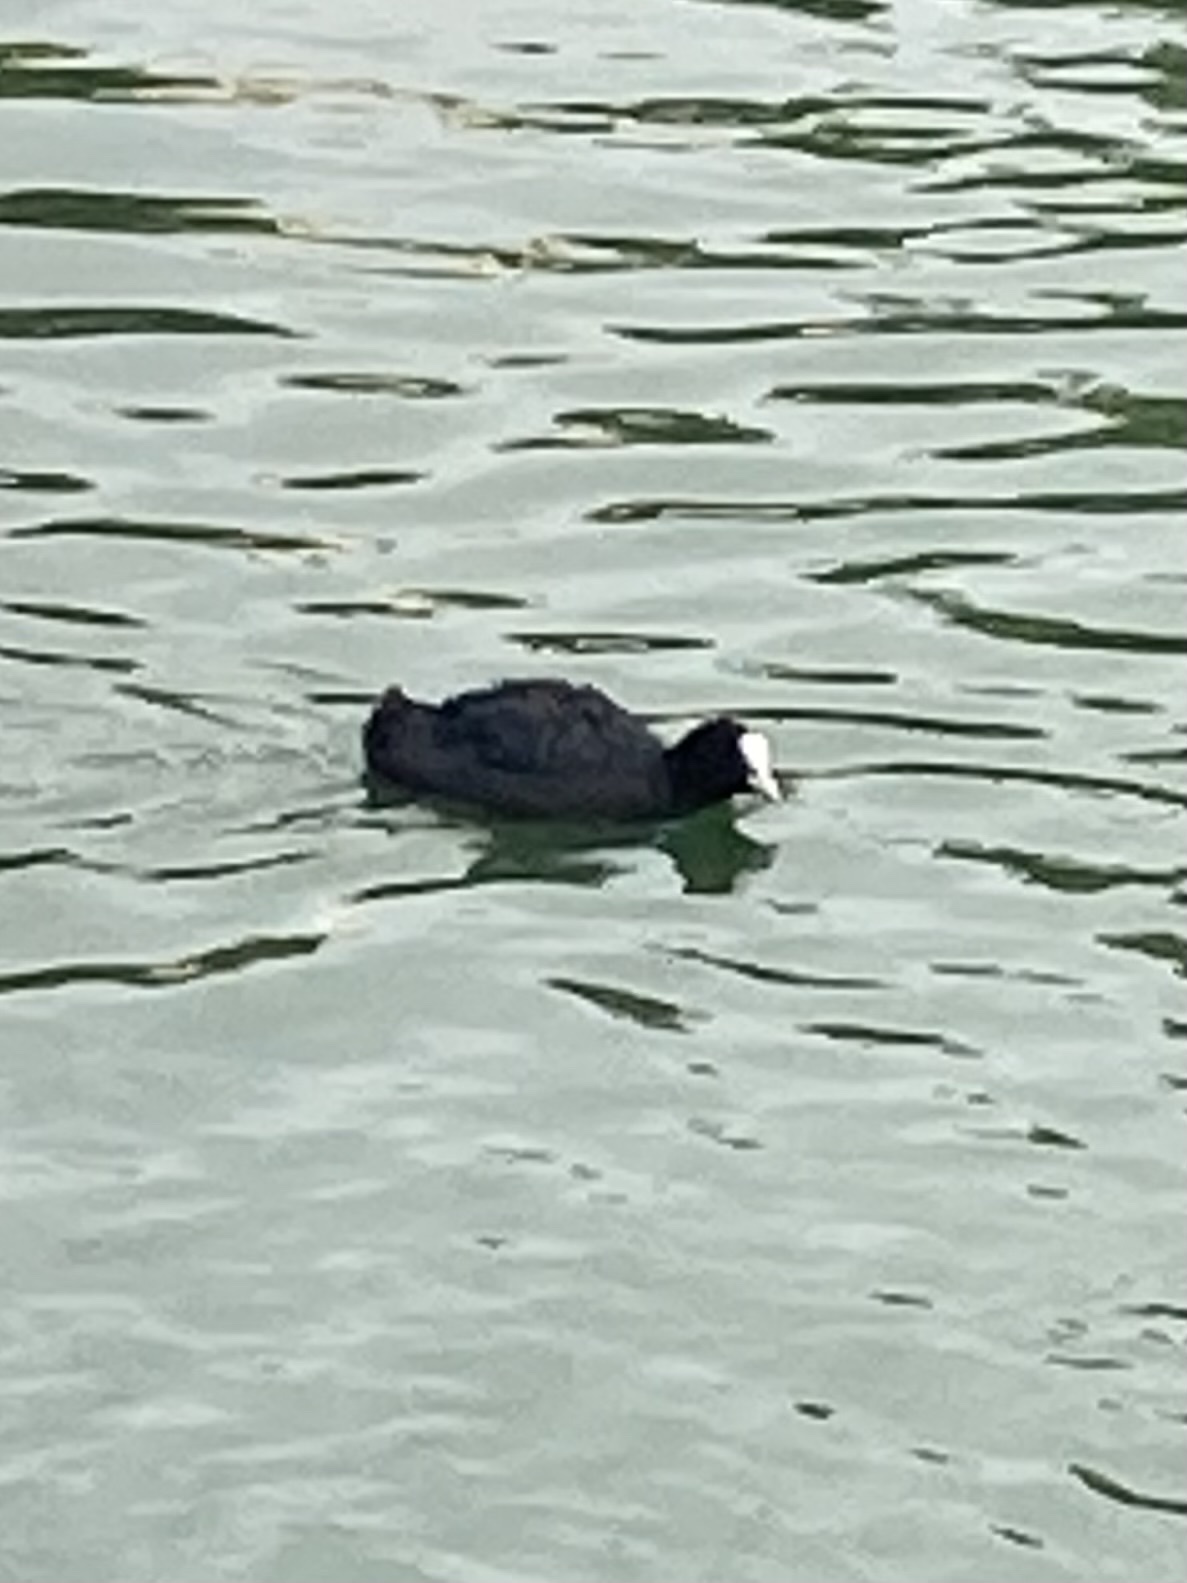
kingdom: Animalia
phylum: Chordata
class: Aves
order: Gruiformes
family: Rallidae
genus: Fulica
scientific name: Fulica atra
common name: Eurasian coot
